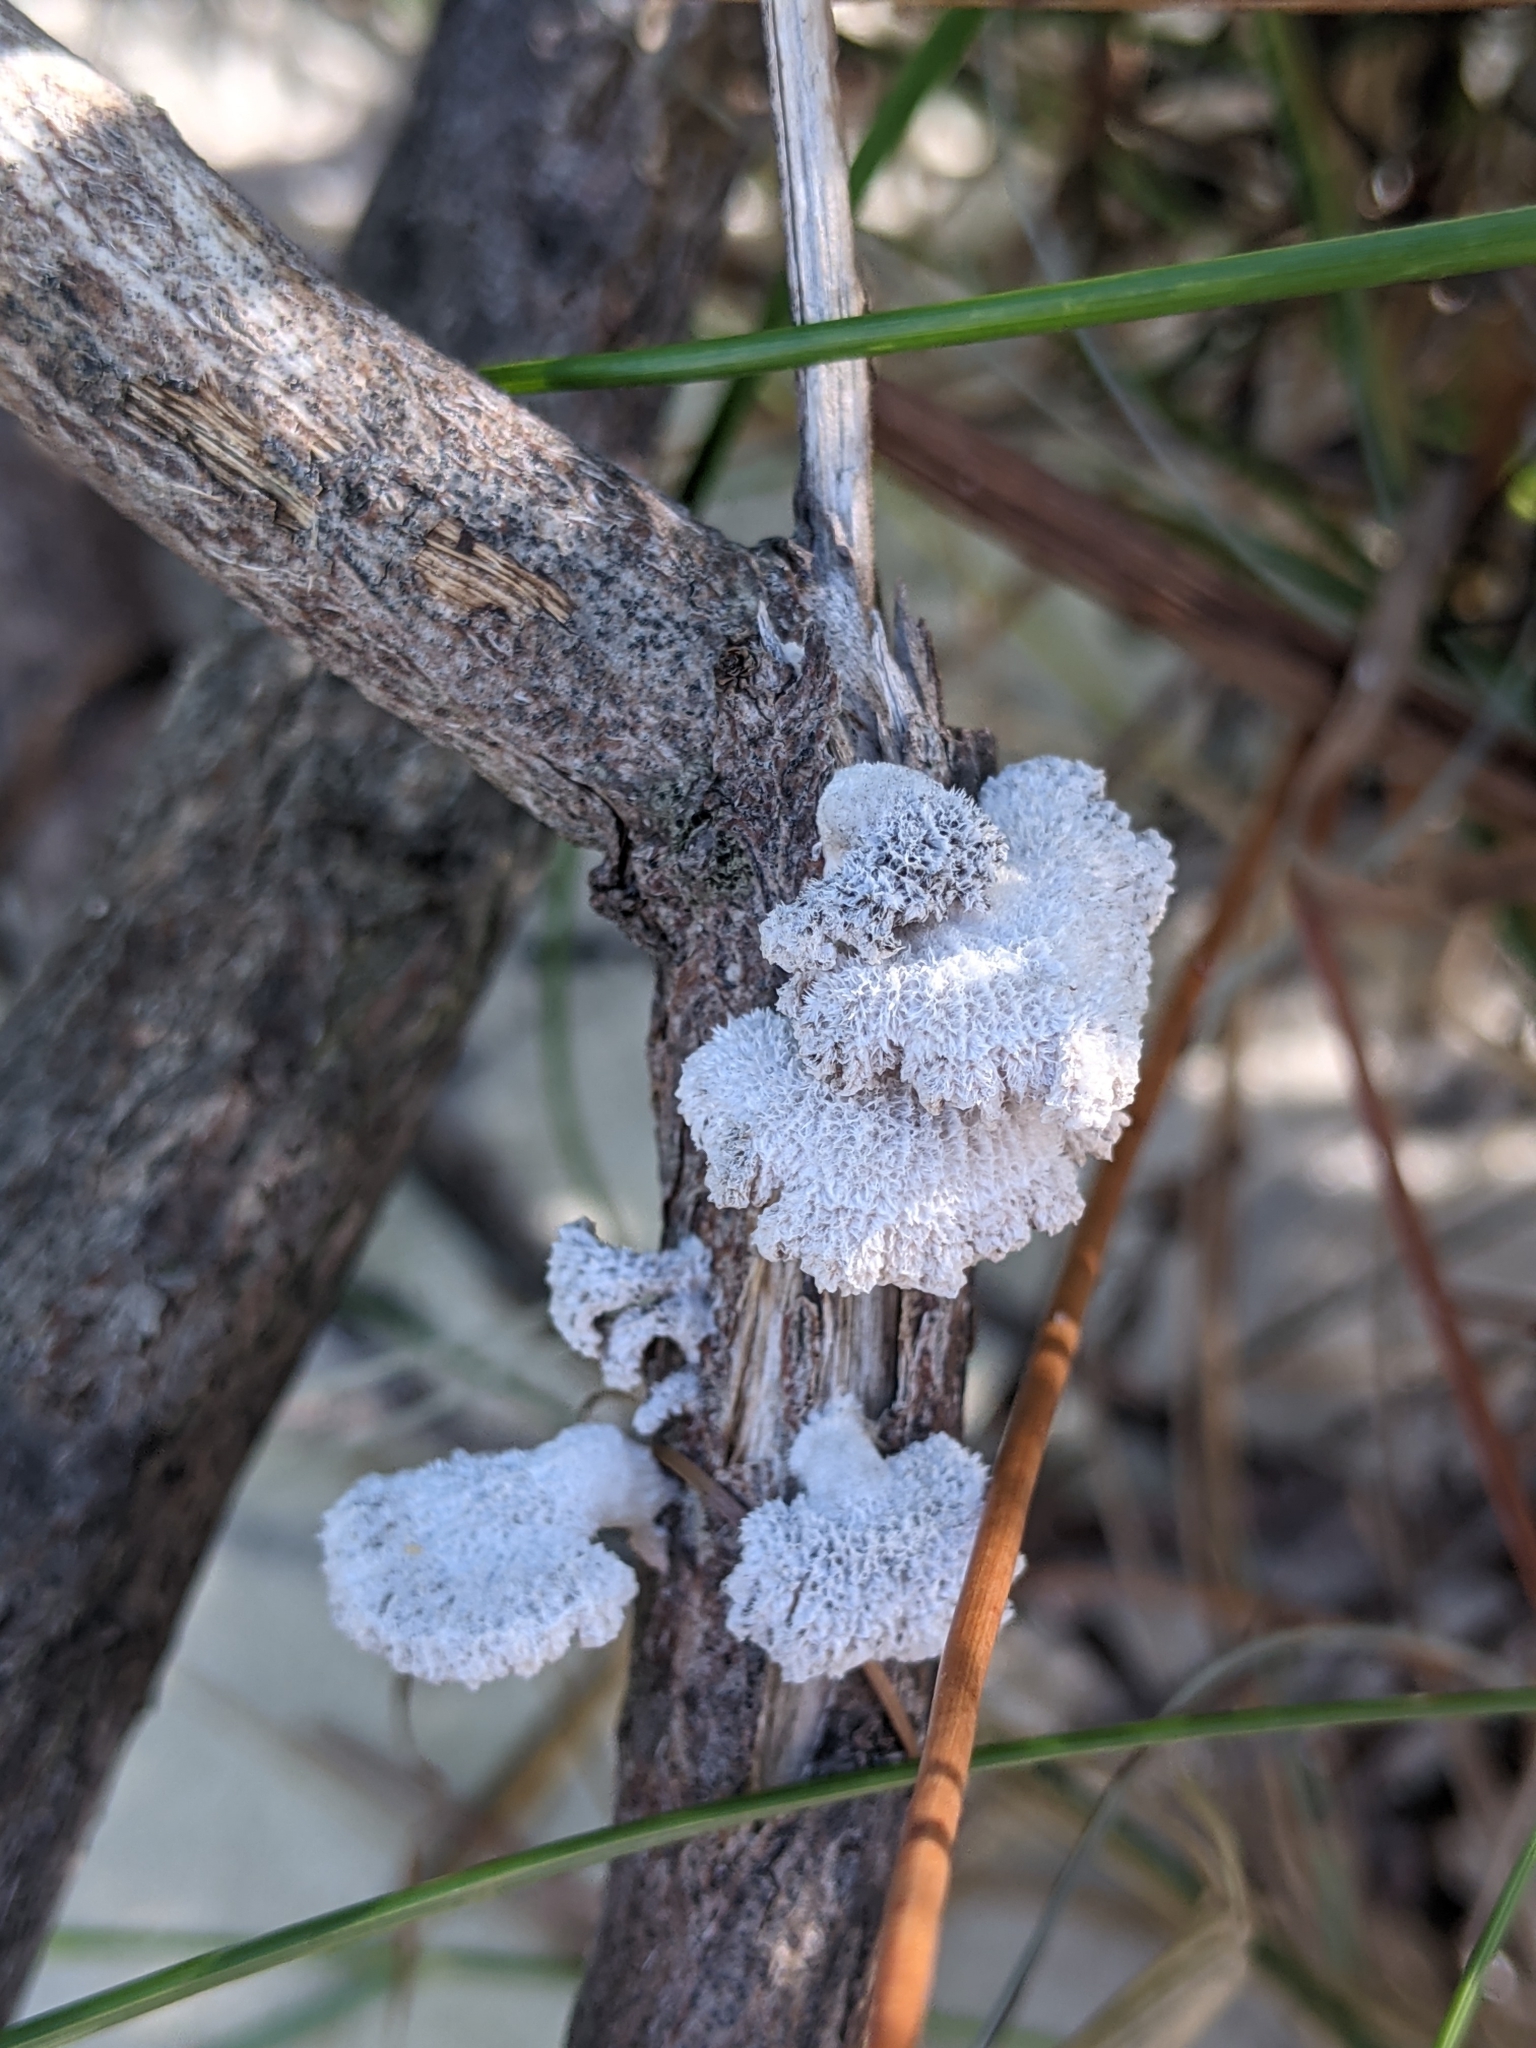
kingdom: Fungi
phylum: Basidiomycota
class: Agaricomycetes
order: Agaricales
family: Schizophyllaceae
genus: Schizophyllum
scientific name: Schizophyllum commune
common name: Common porecrust
